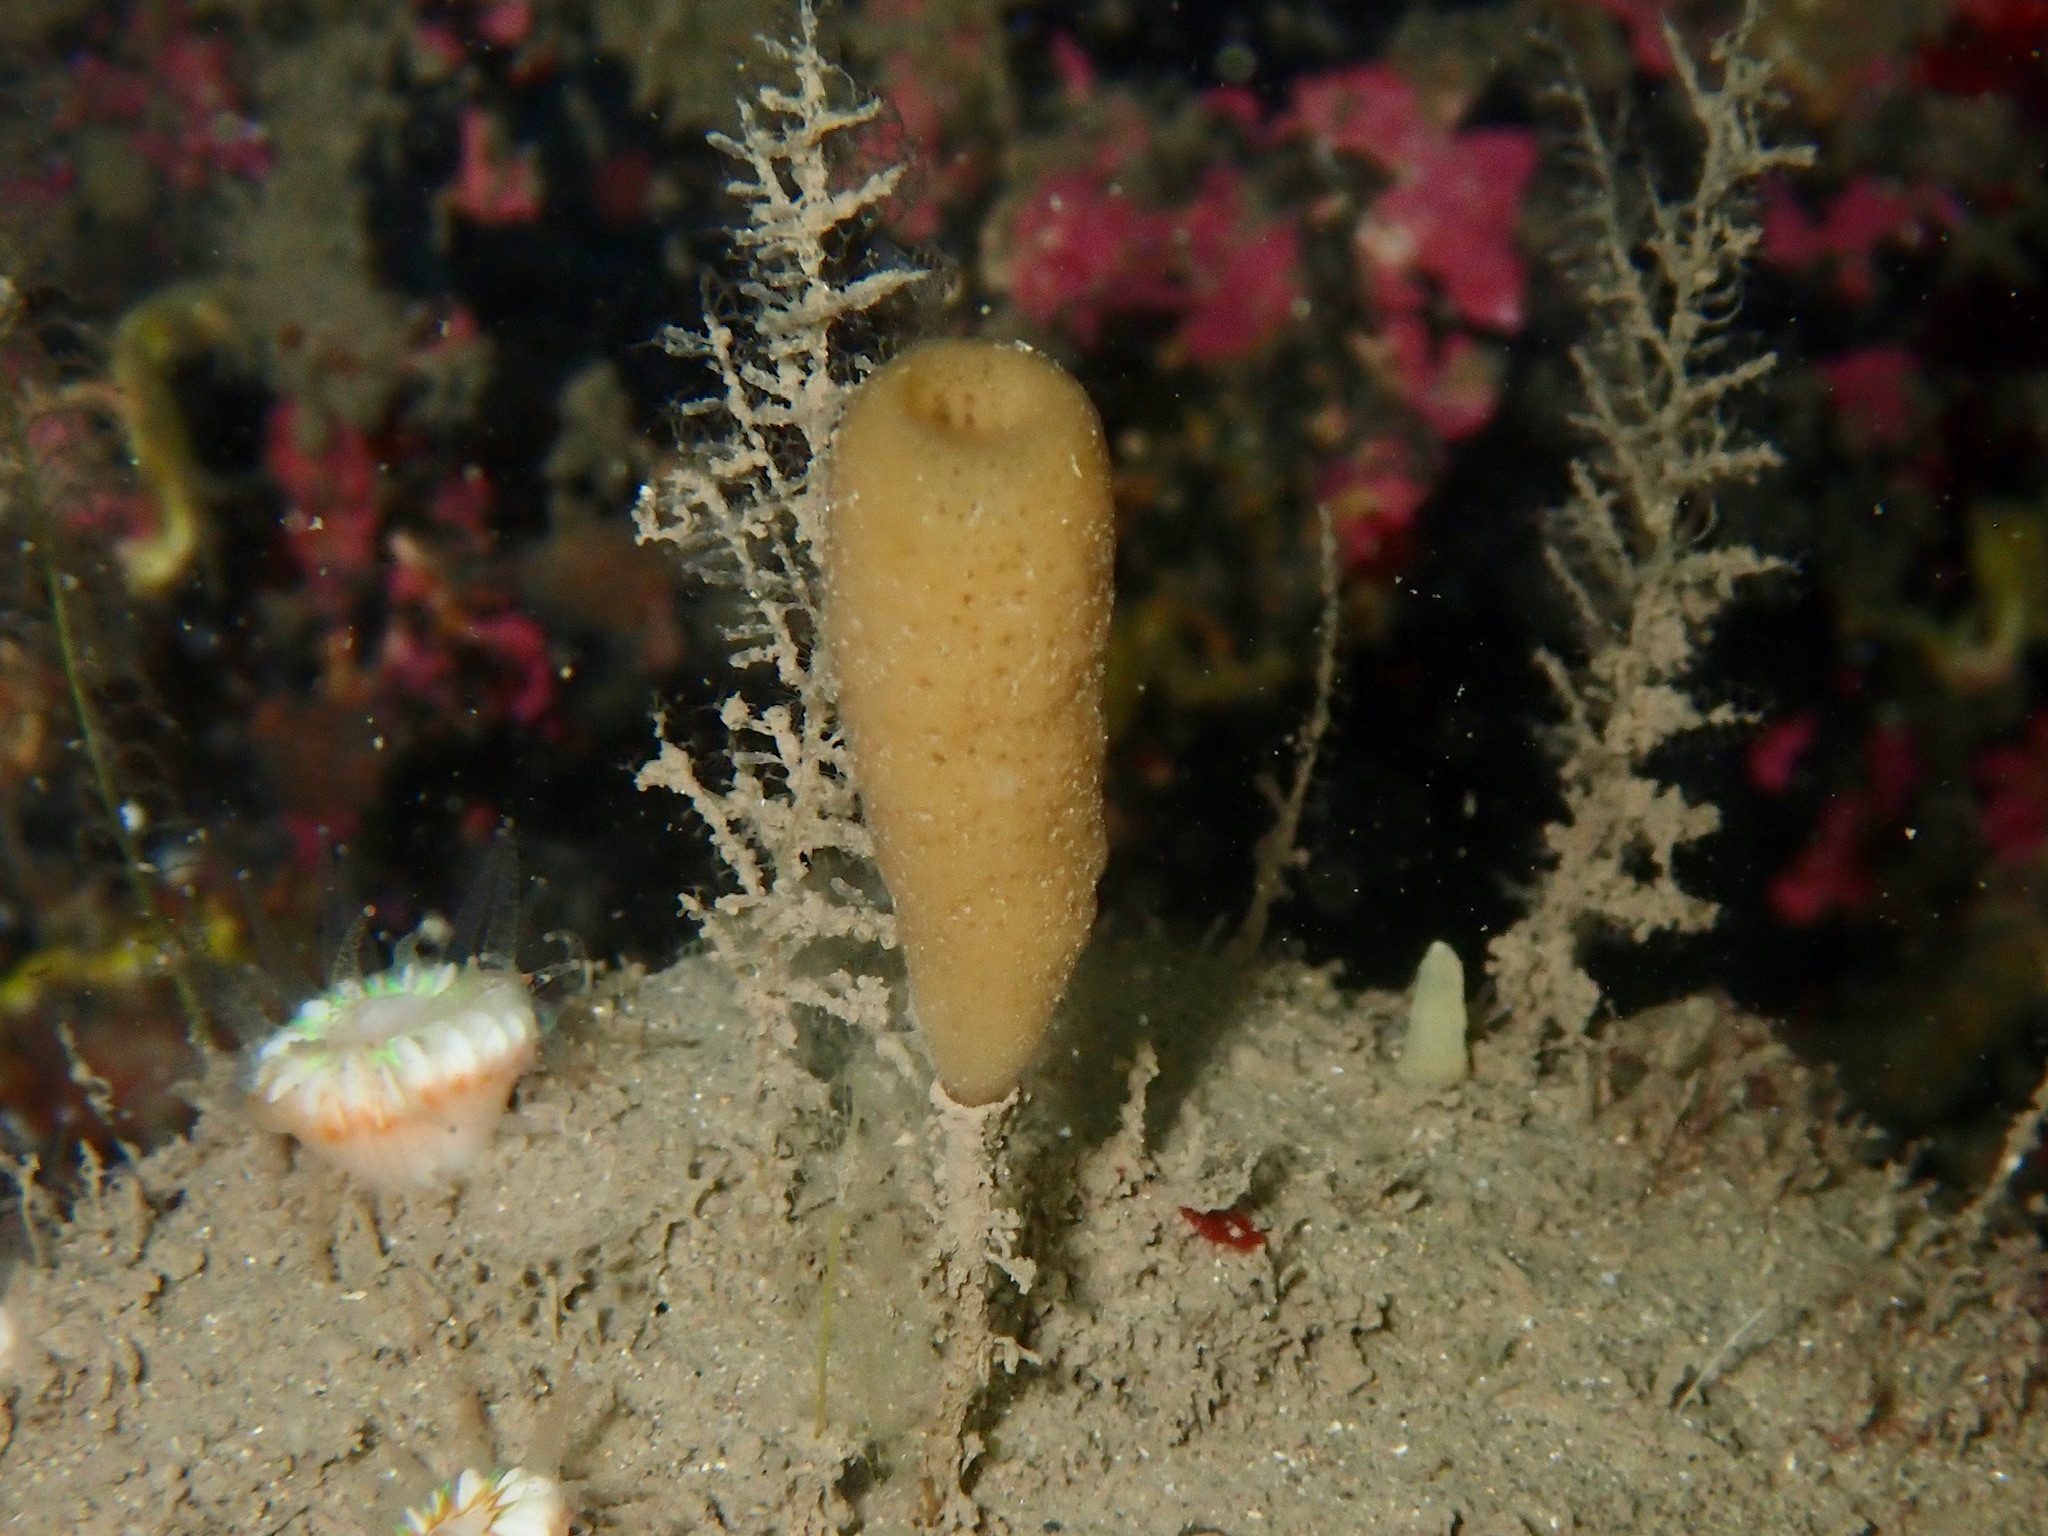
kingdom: Animalia
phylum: Porifera
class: Demospongiae
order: Haplosclerida
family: Chalinidae
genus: Haliclona
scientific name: Haliclona urceolus
